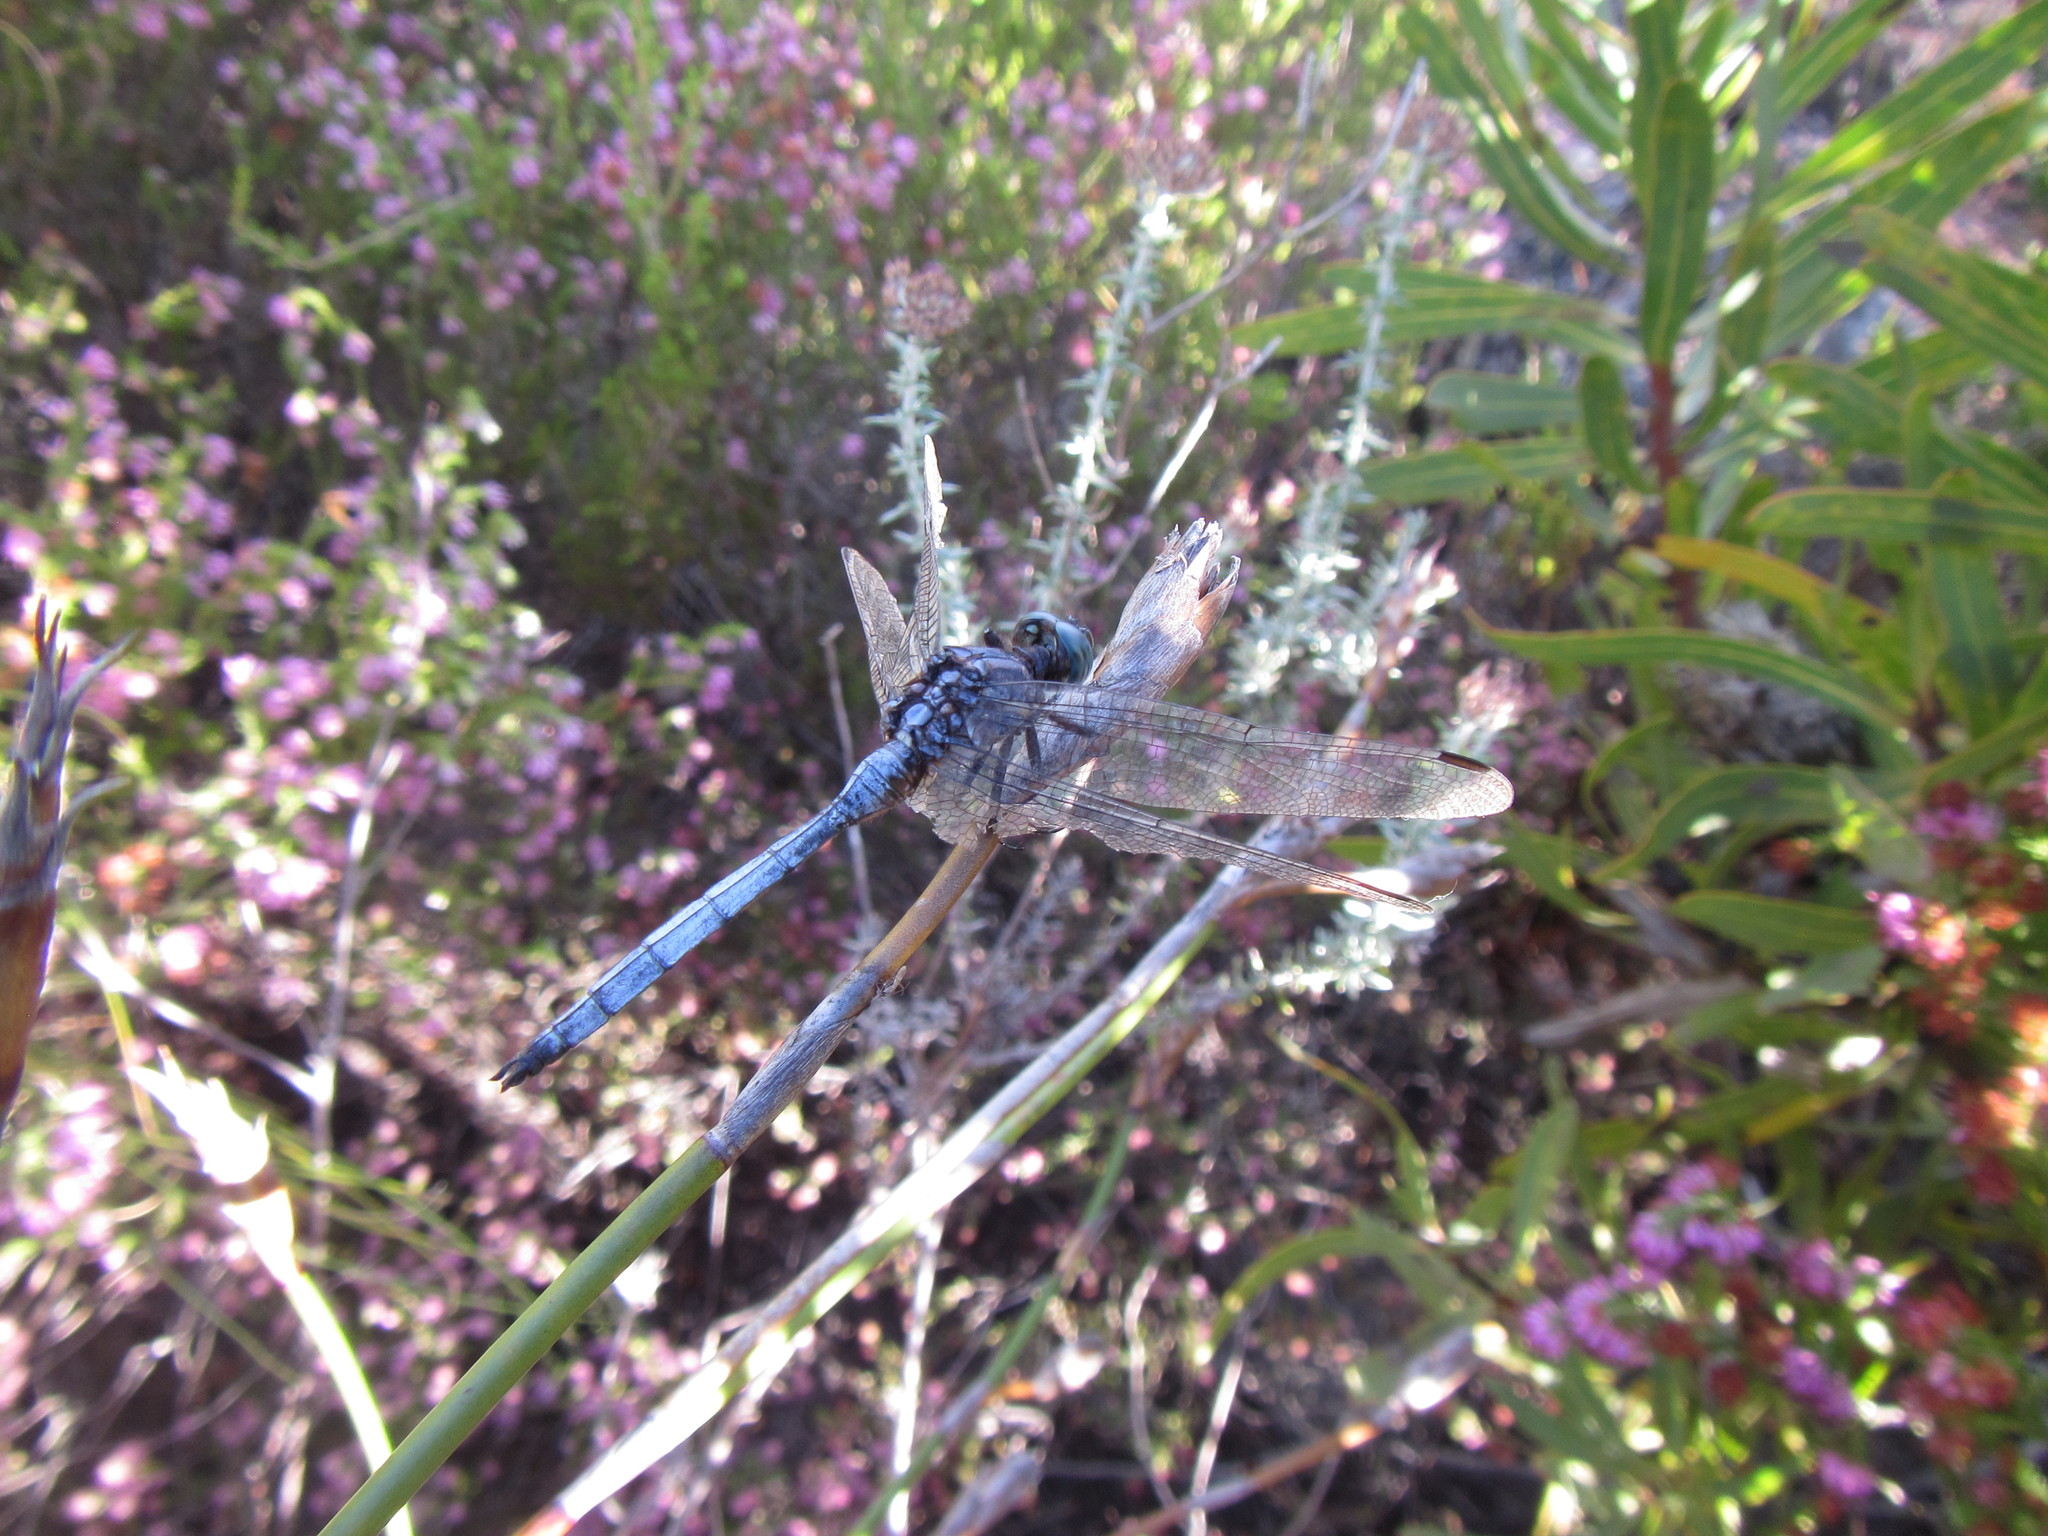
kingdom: Animalia
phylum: Arthropoda
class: Insecta
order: Odonata
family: Libellulidae
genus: Orthetrum
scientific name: Orthetrum julia
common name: Julia skimmer
